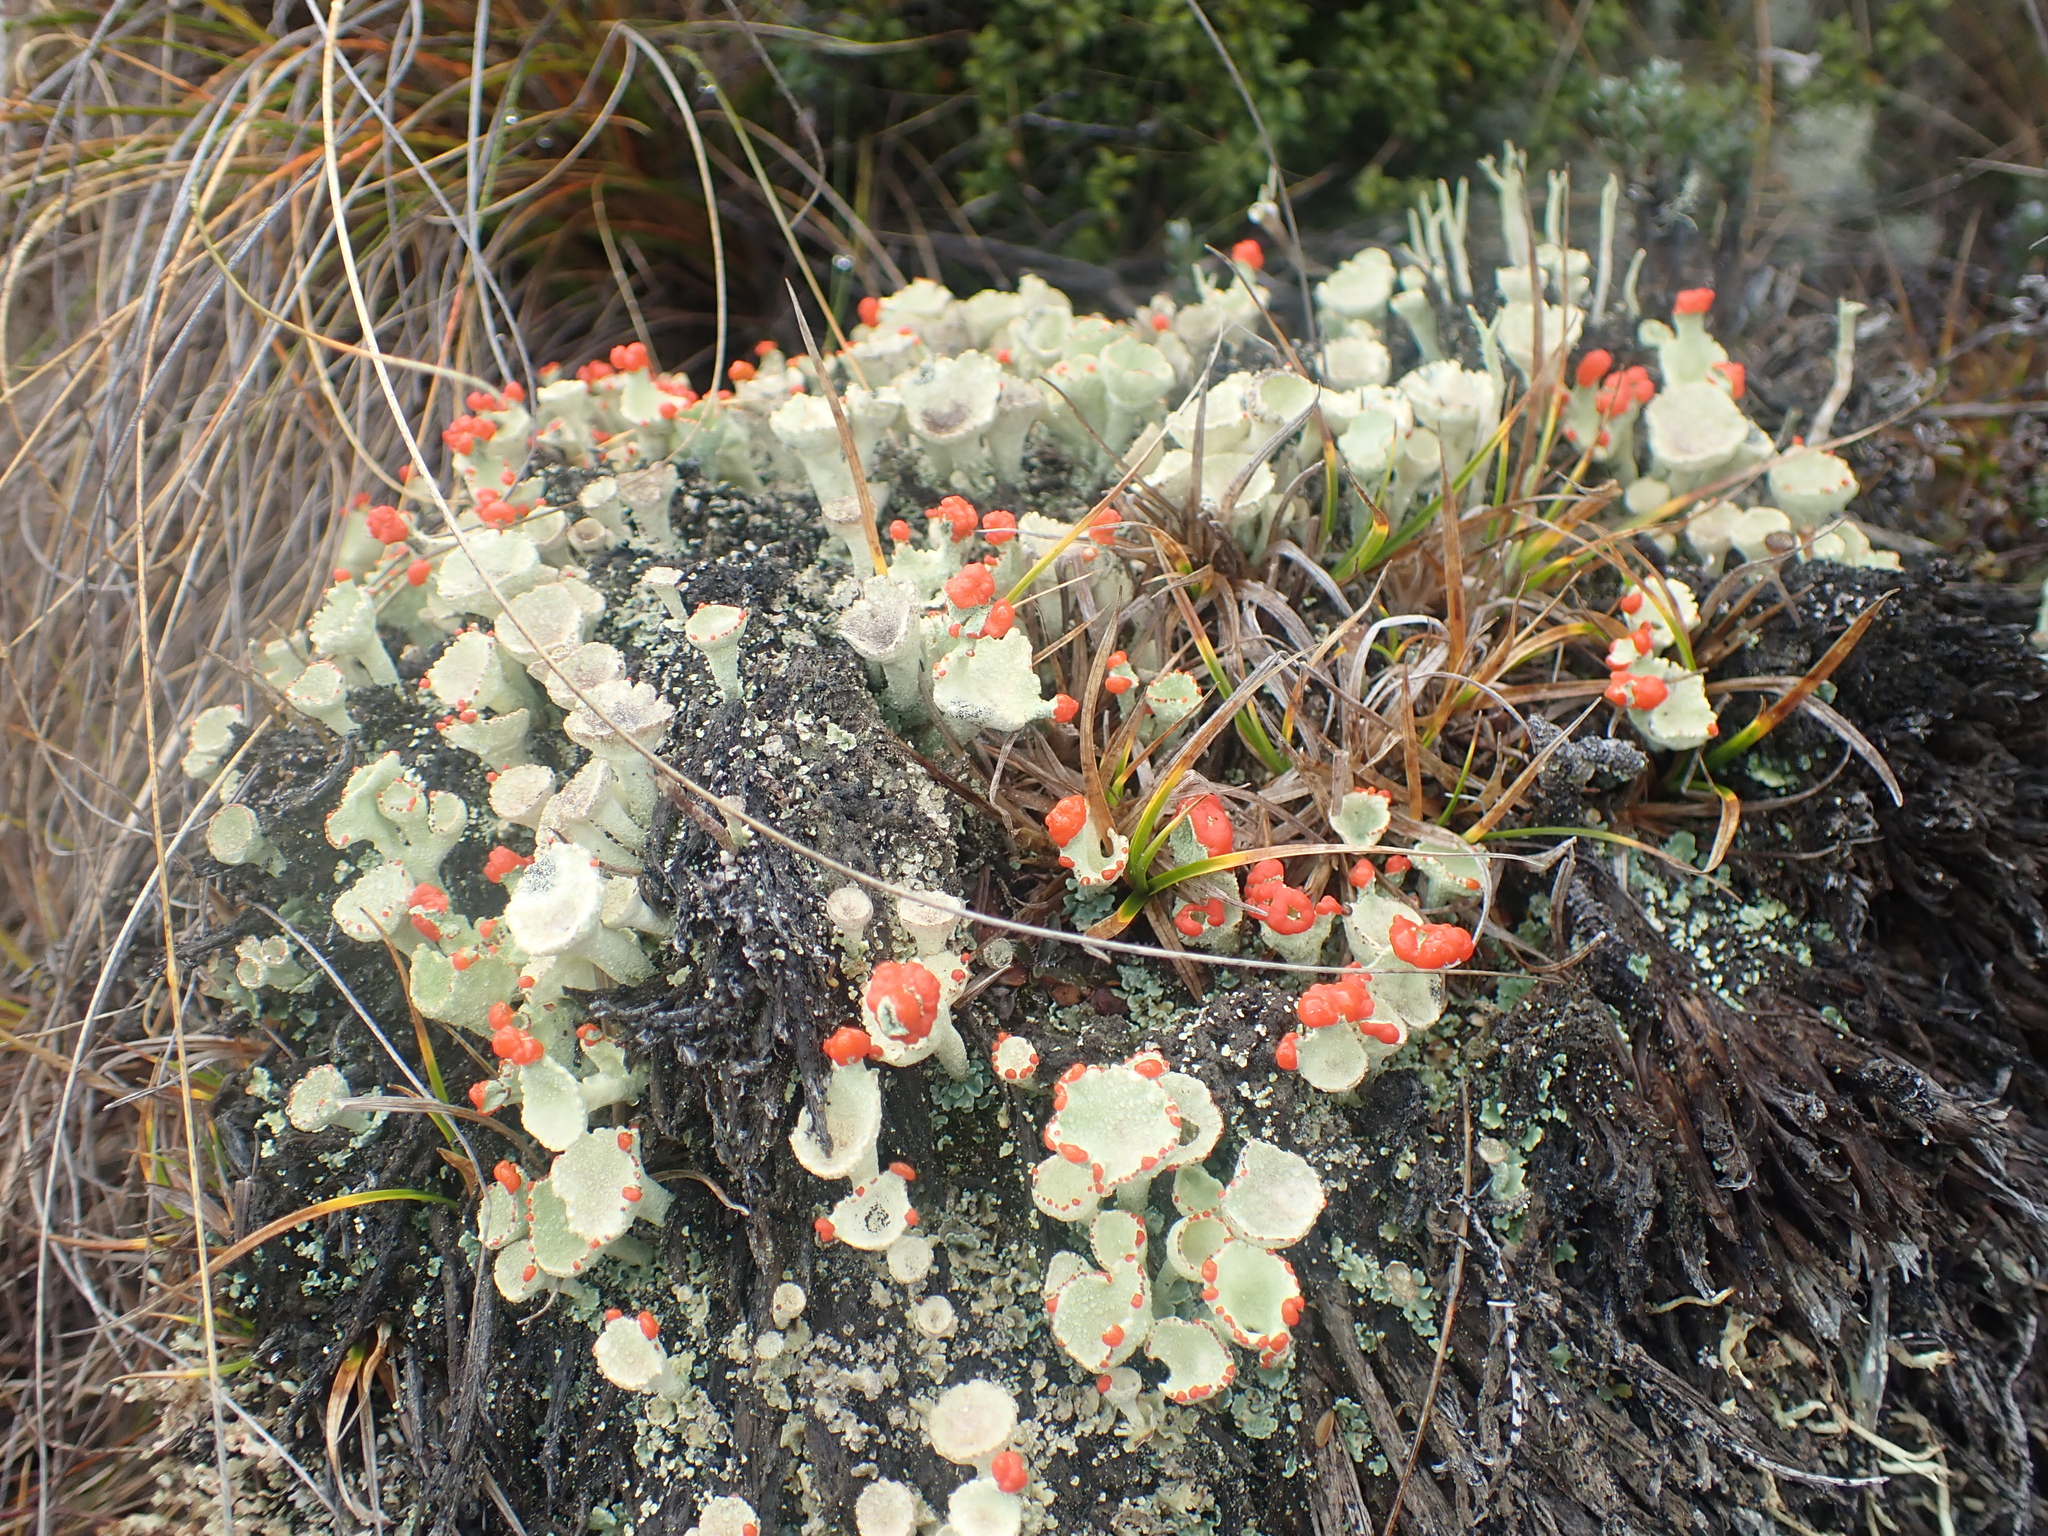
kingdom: Fungi
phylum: Ascomycota
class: Lecanoromycetes
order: Lecanorales
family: Cladoniaceae
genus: Cladonia
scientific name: Cladonia pleurota
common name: Red-fruited pixie cup
